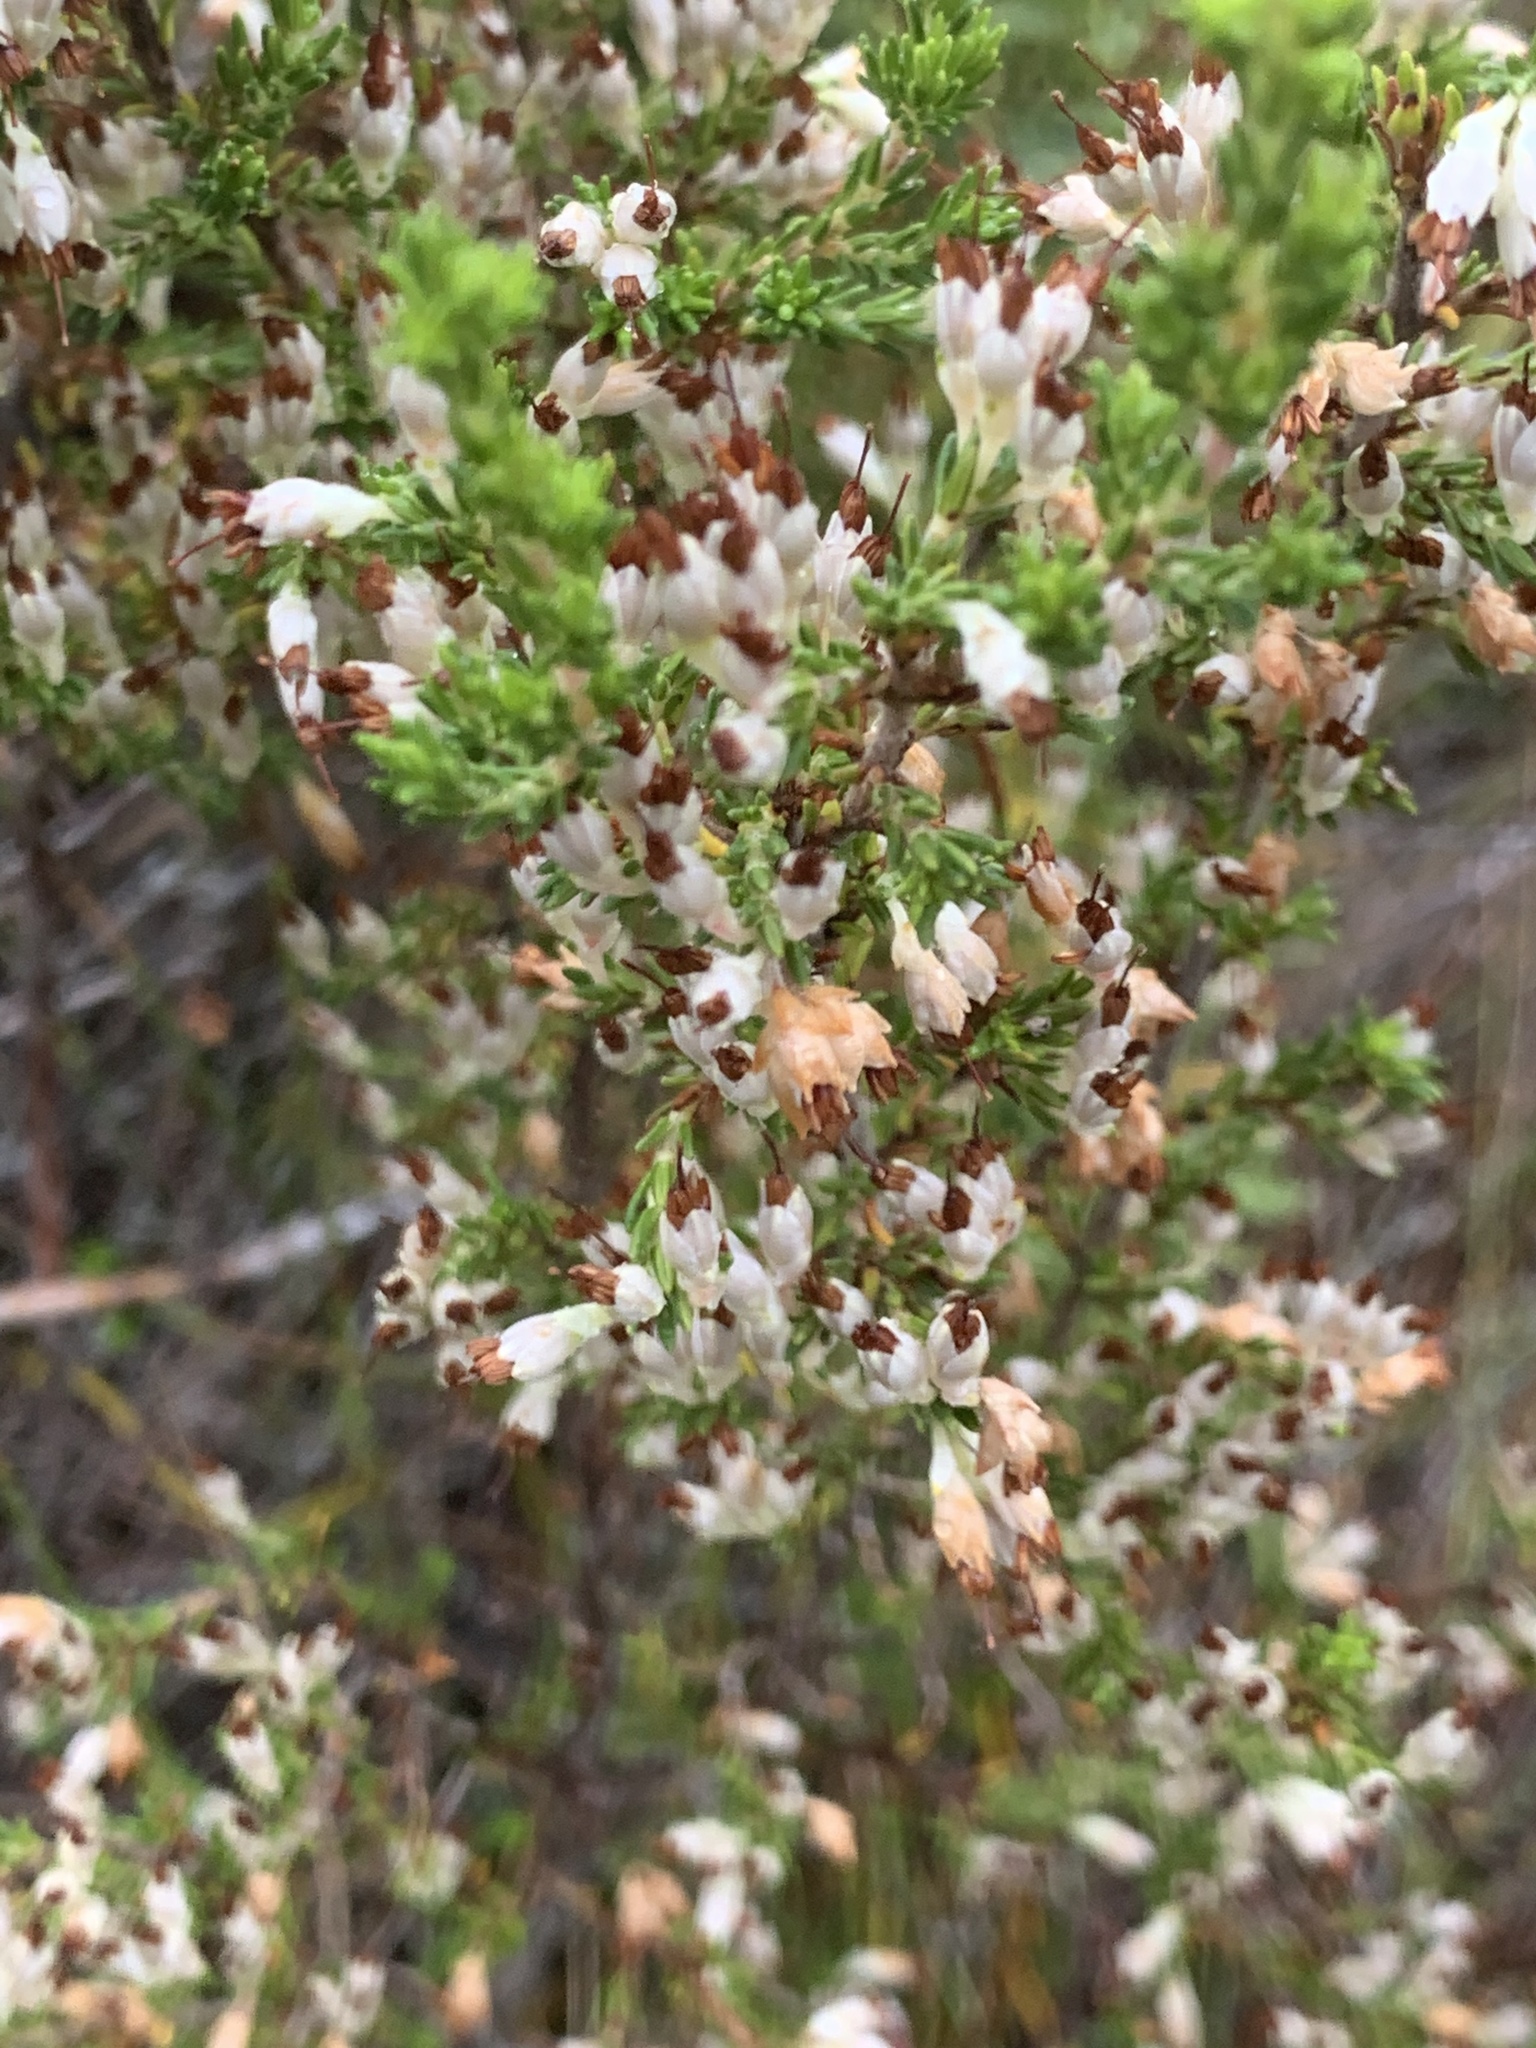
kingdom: Plantae
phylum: Tracheophyta
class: Magnoliopsida
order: Ericales
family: Ericaceae
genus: Erica
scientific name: Erica imbricata
